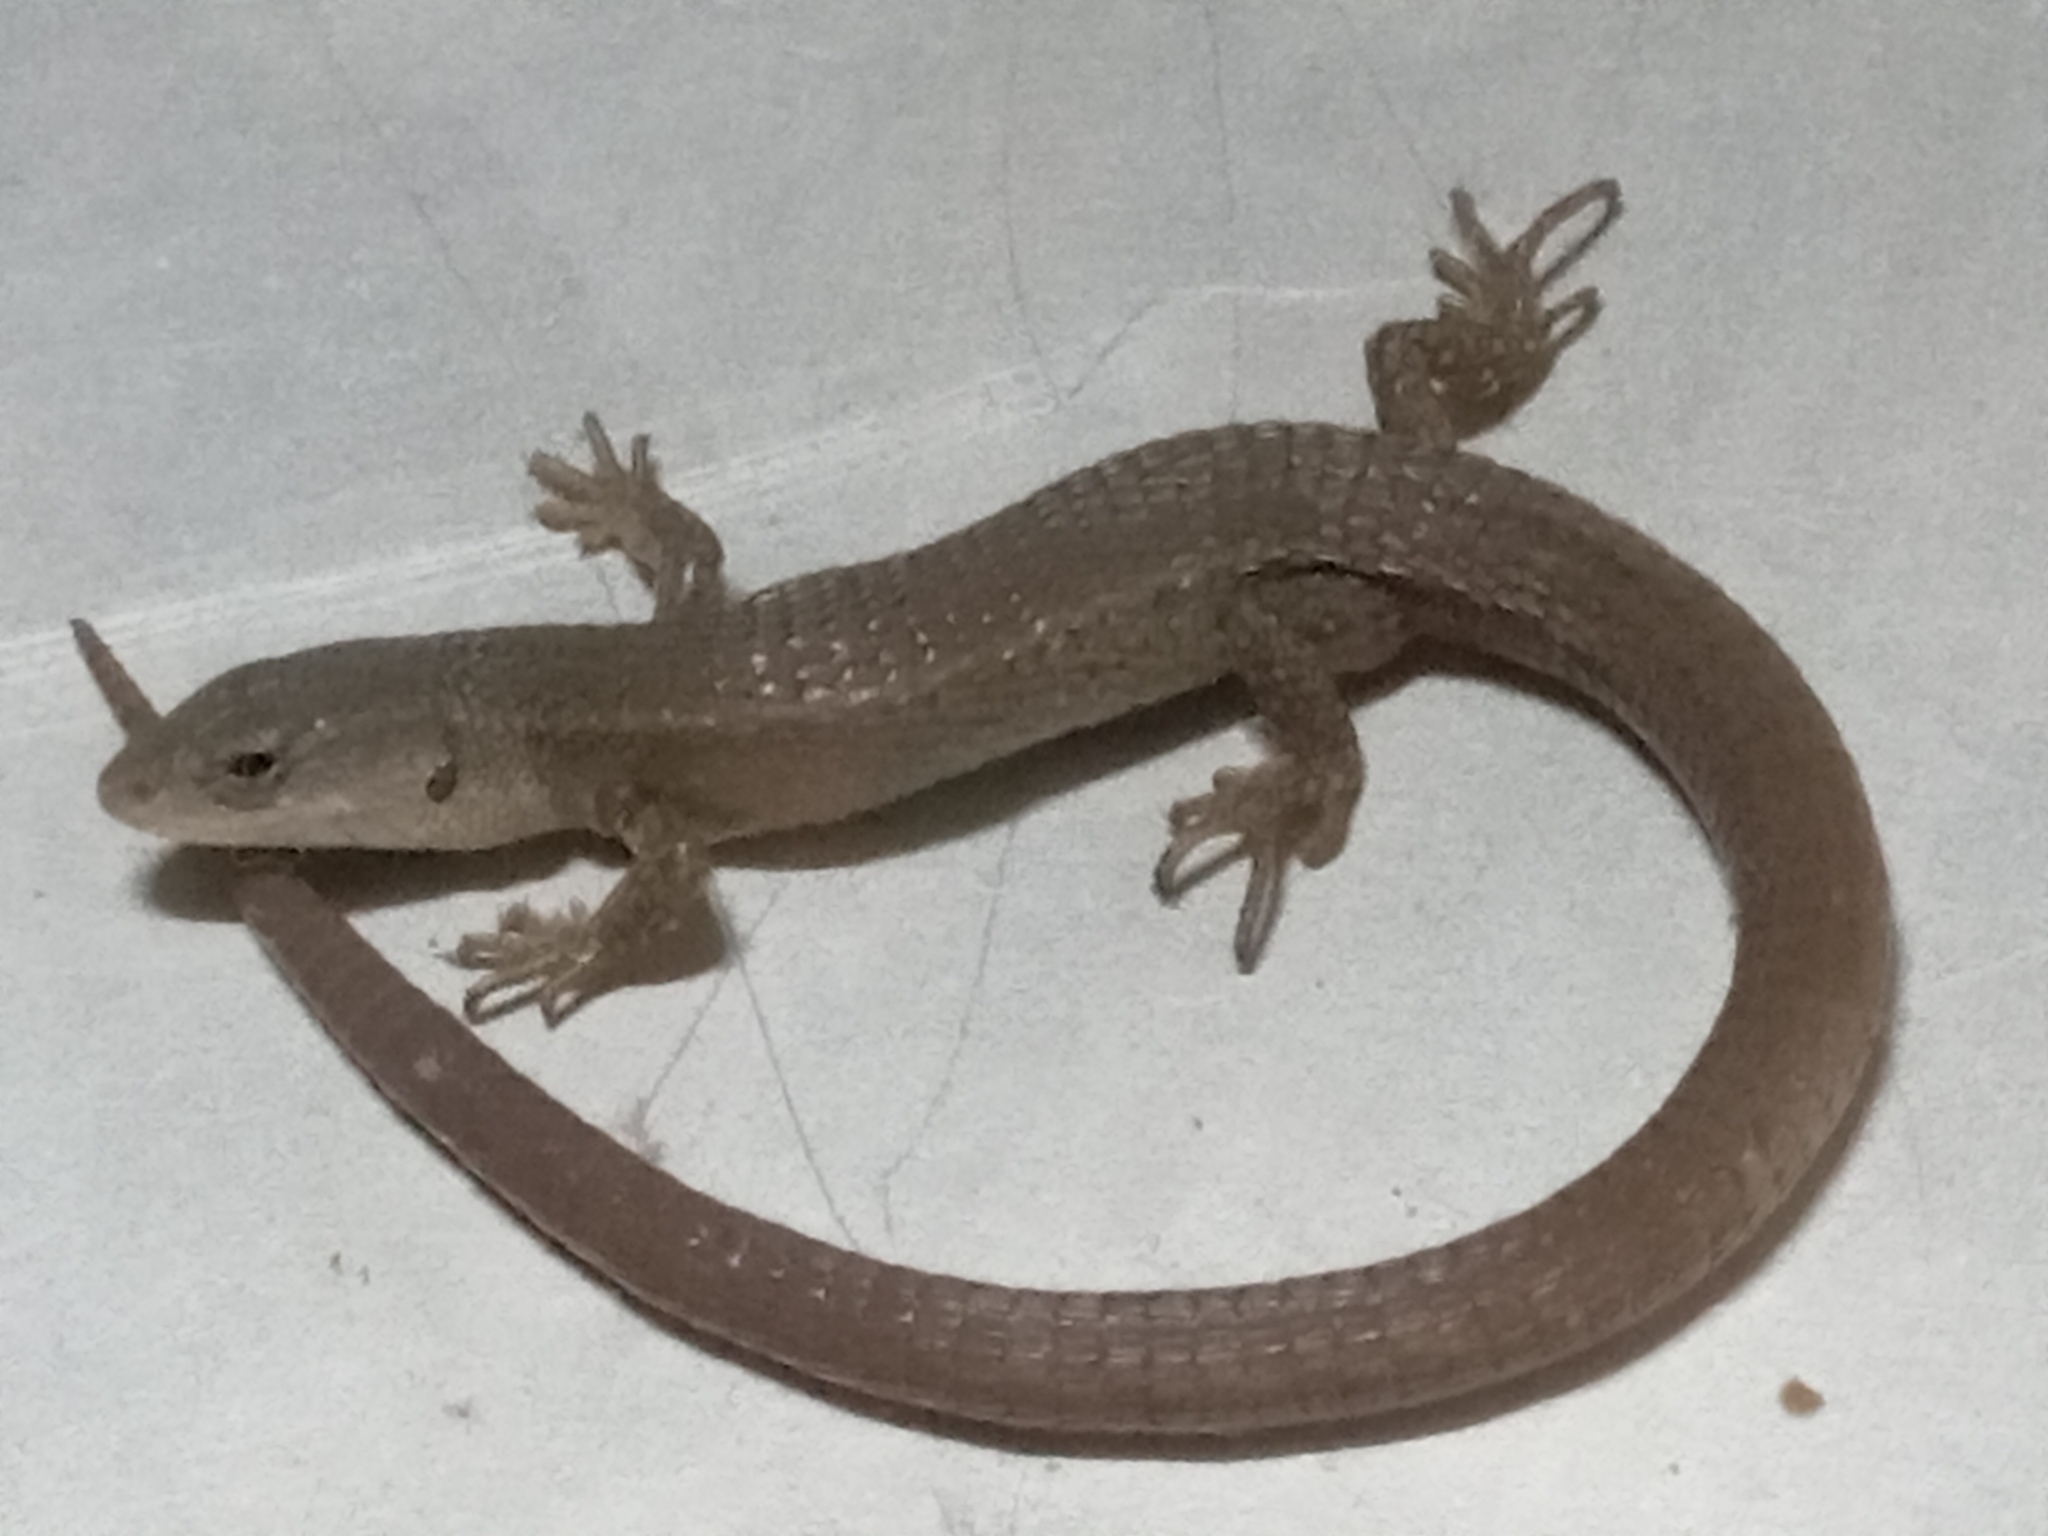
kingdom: Animalia
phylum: Chordata
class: Squamata
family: Gymnophthalmidae
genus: Cercosaura
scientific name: Cercosaura schreibersii
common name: Schreibers' many-fingered teiid
